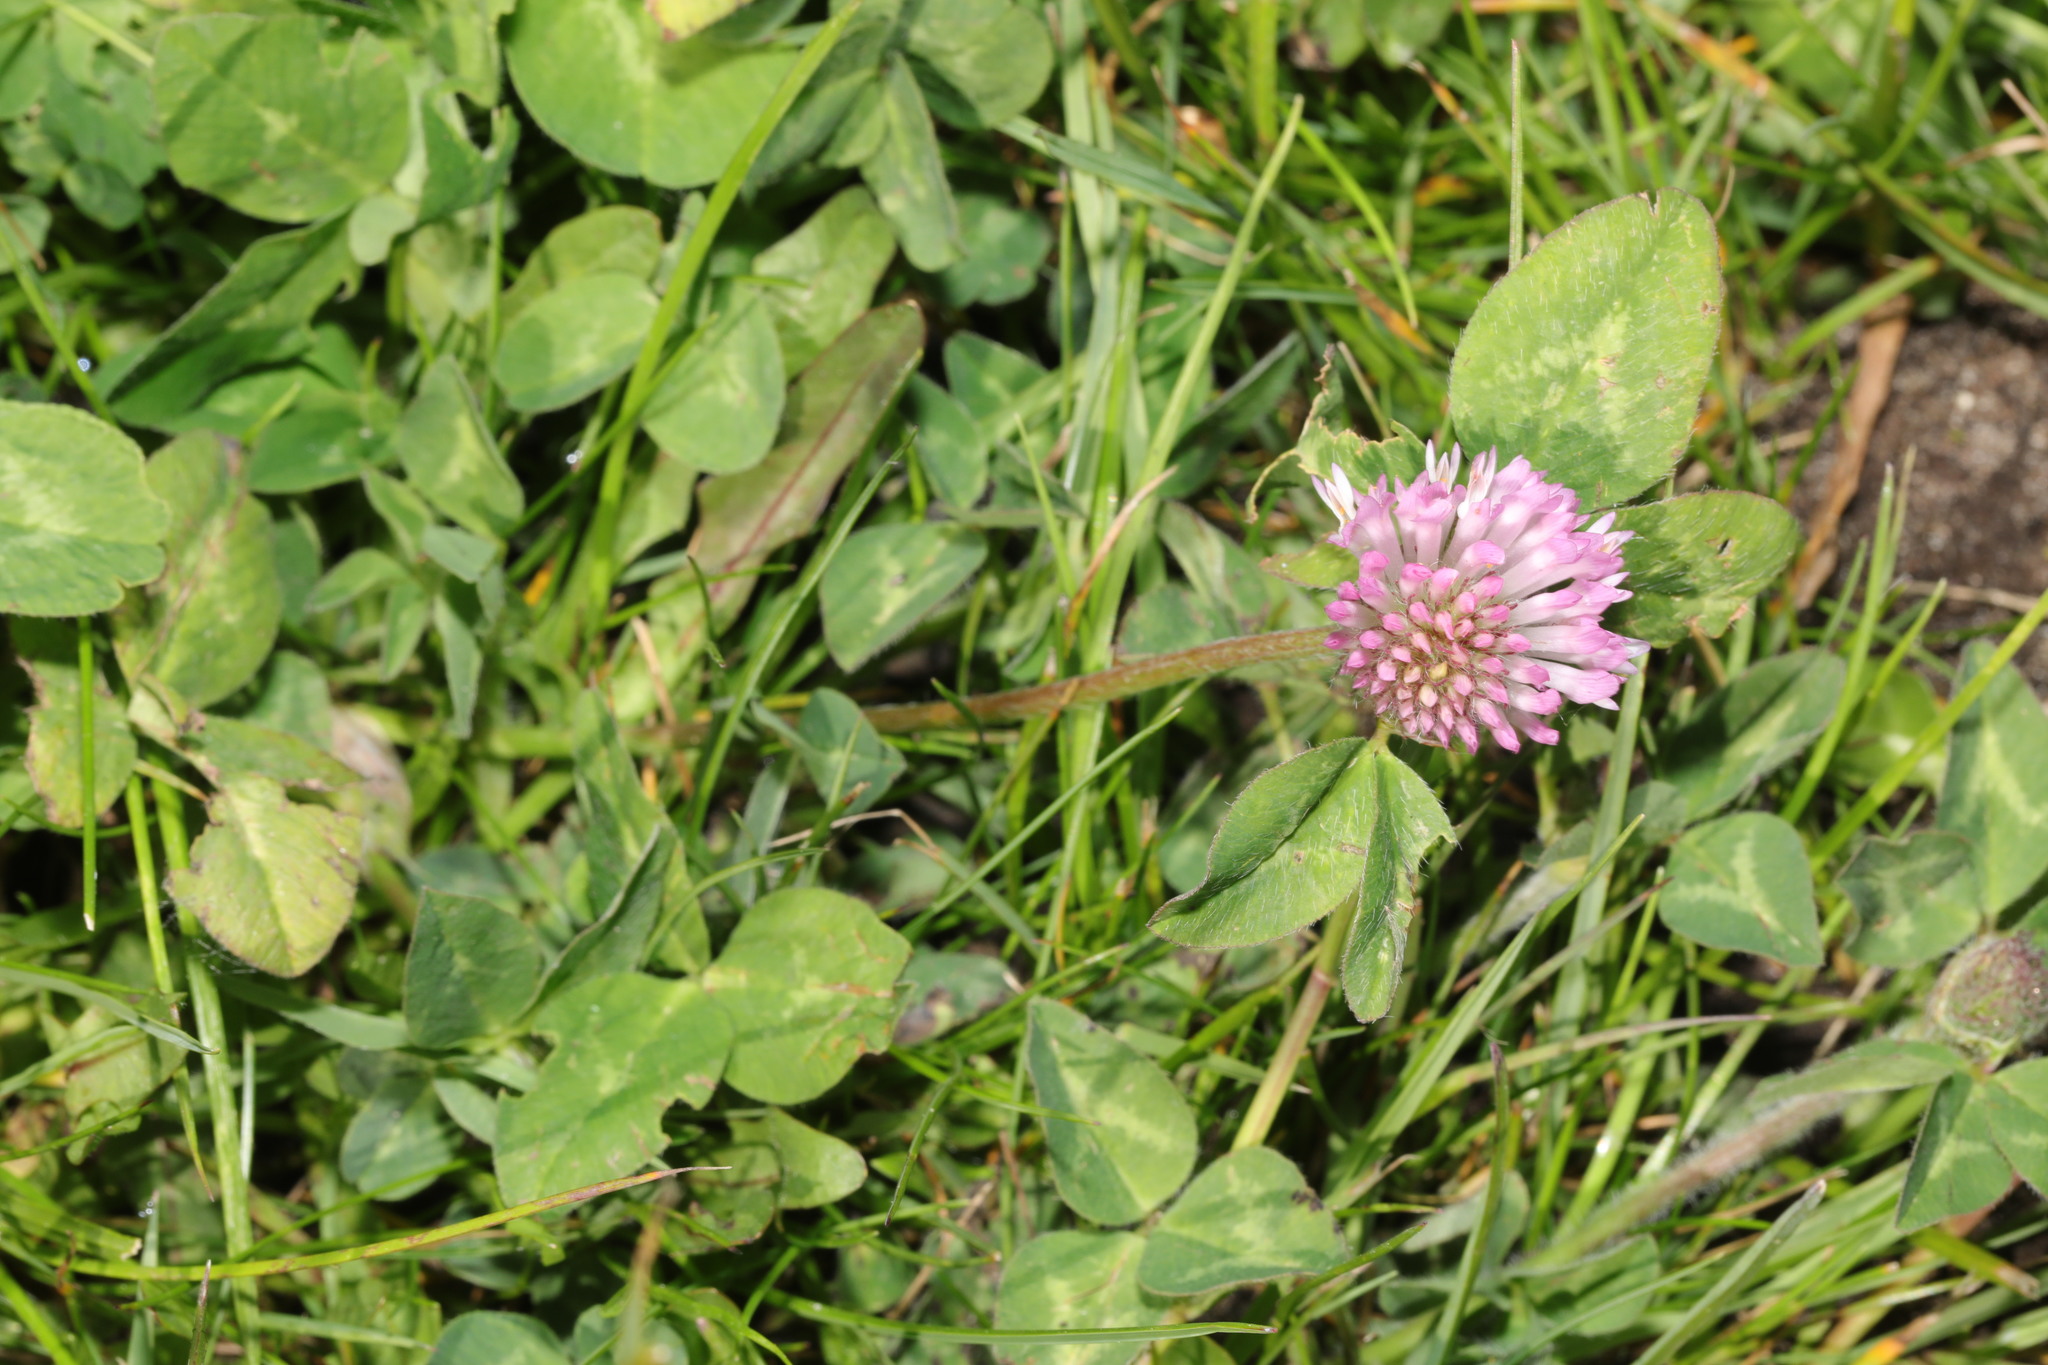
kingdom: Plantae
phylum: Tracheophyta
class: Magnoliopsida
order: Fabales
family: Fabaceae
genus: Trifolium
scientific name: Trifolium pratense
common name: Red clover
